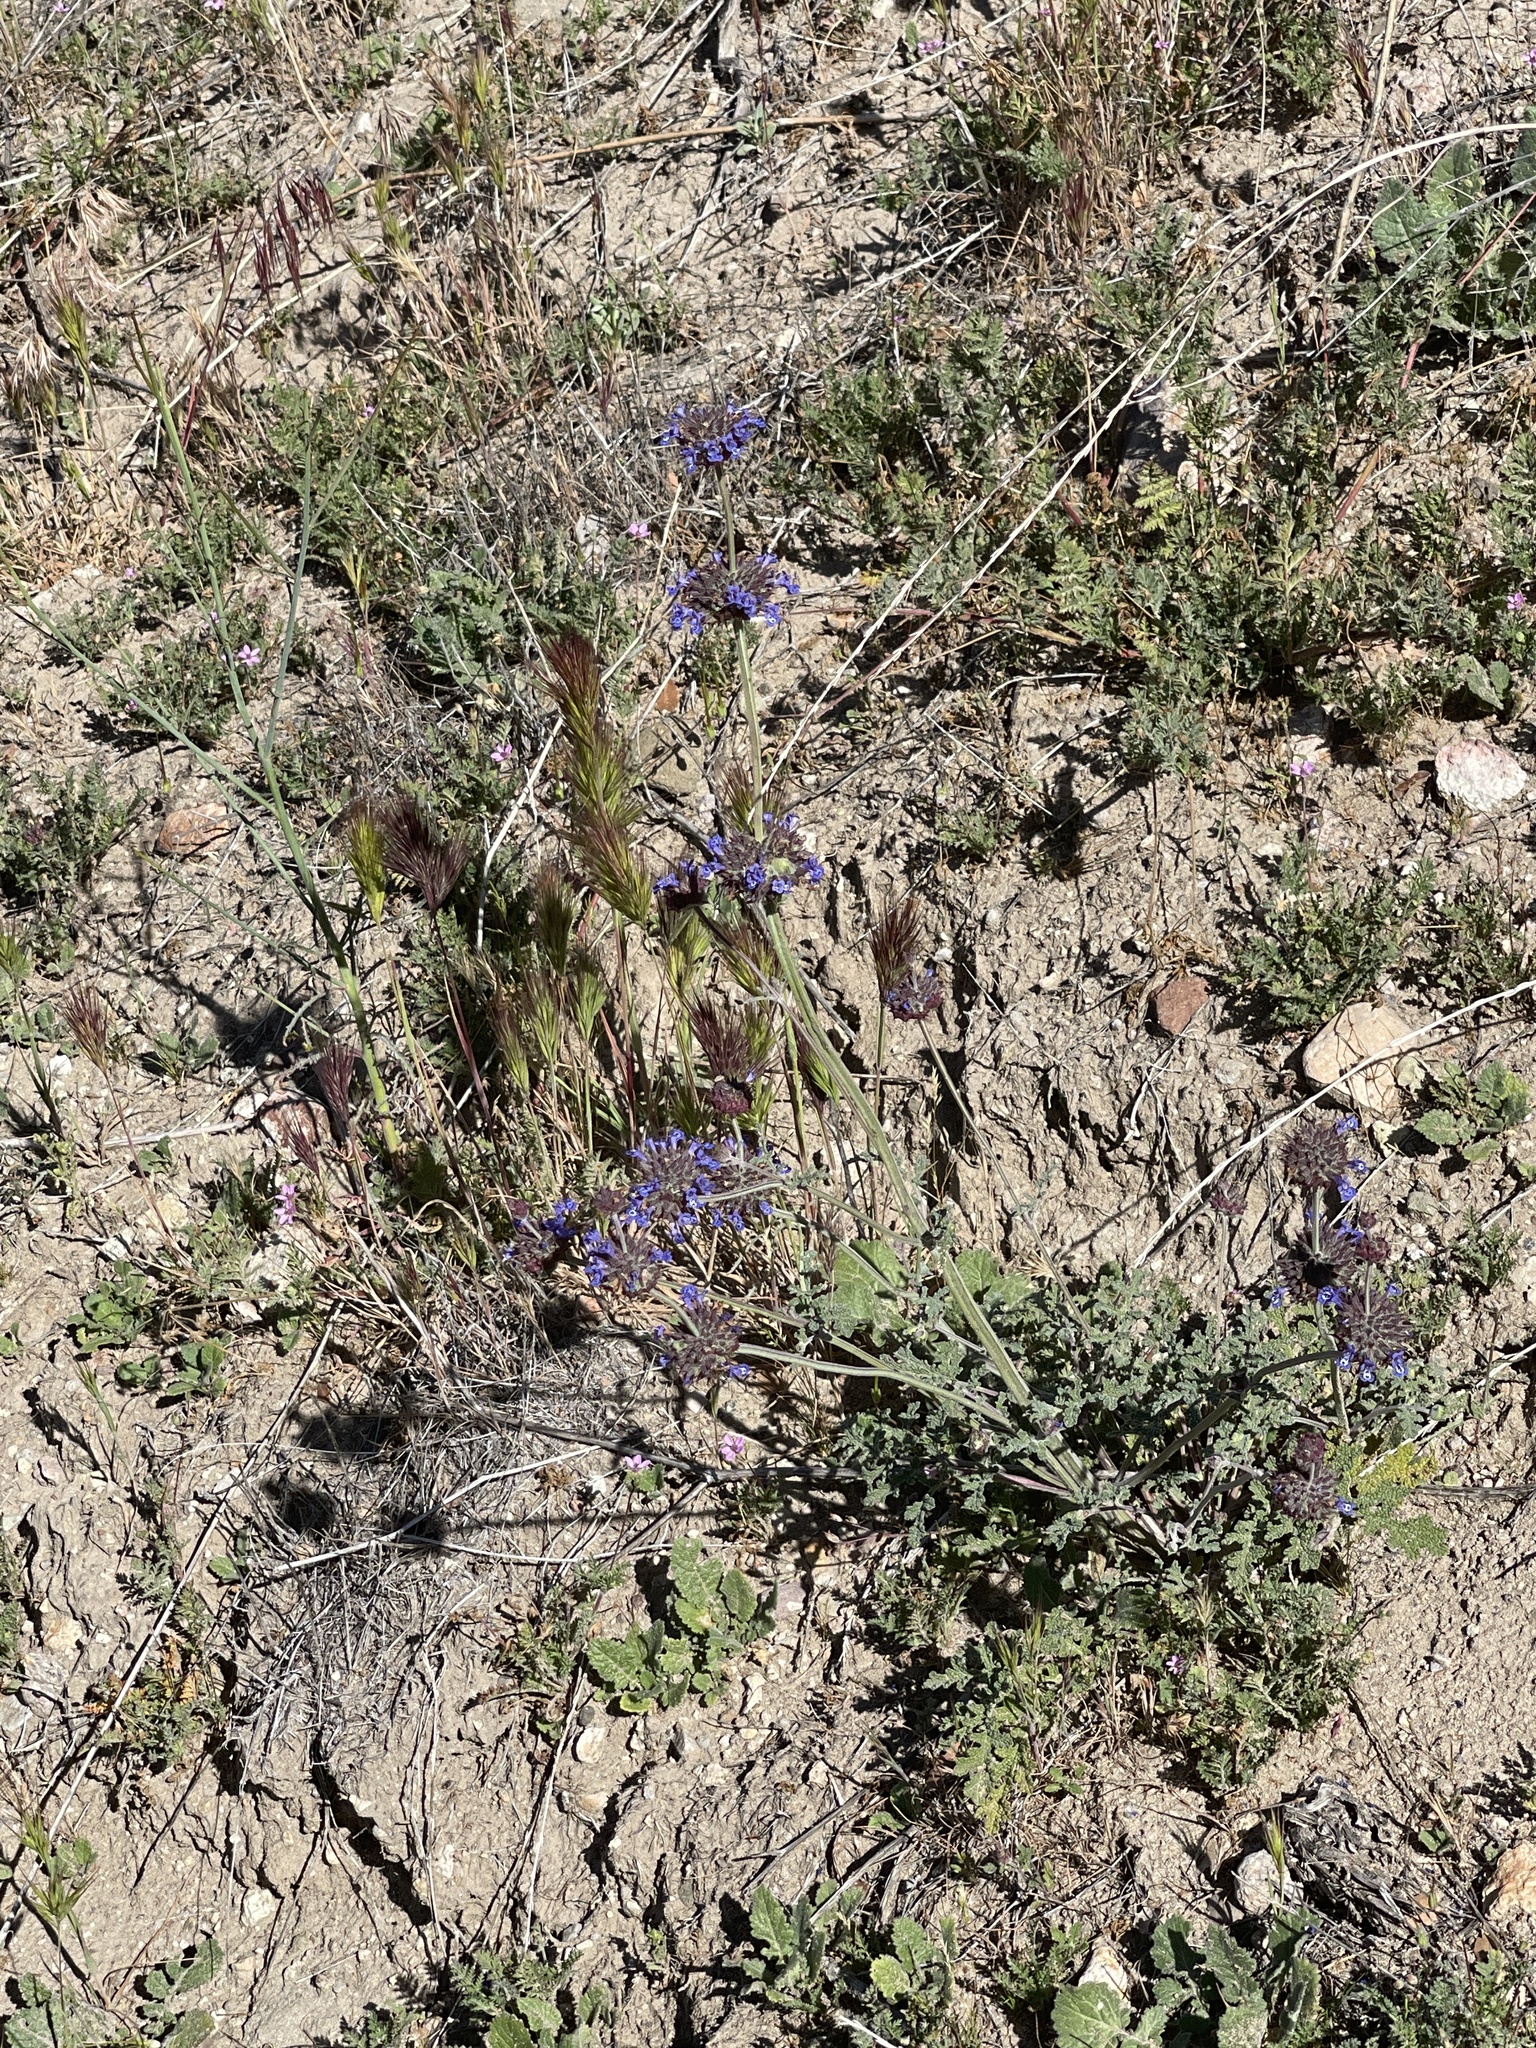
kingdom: Plantae
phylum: Tracheophyta
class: Magnoliopsida
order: Lamiales
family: Lamiaceae
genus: Salvia
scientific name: Salvia columbariae
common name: Chia
